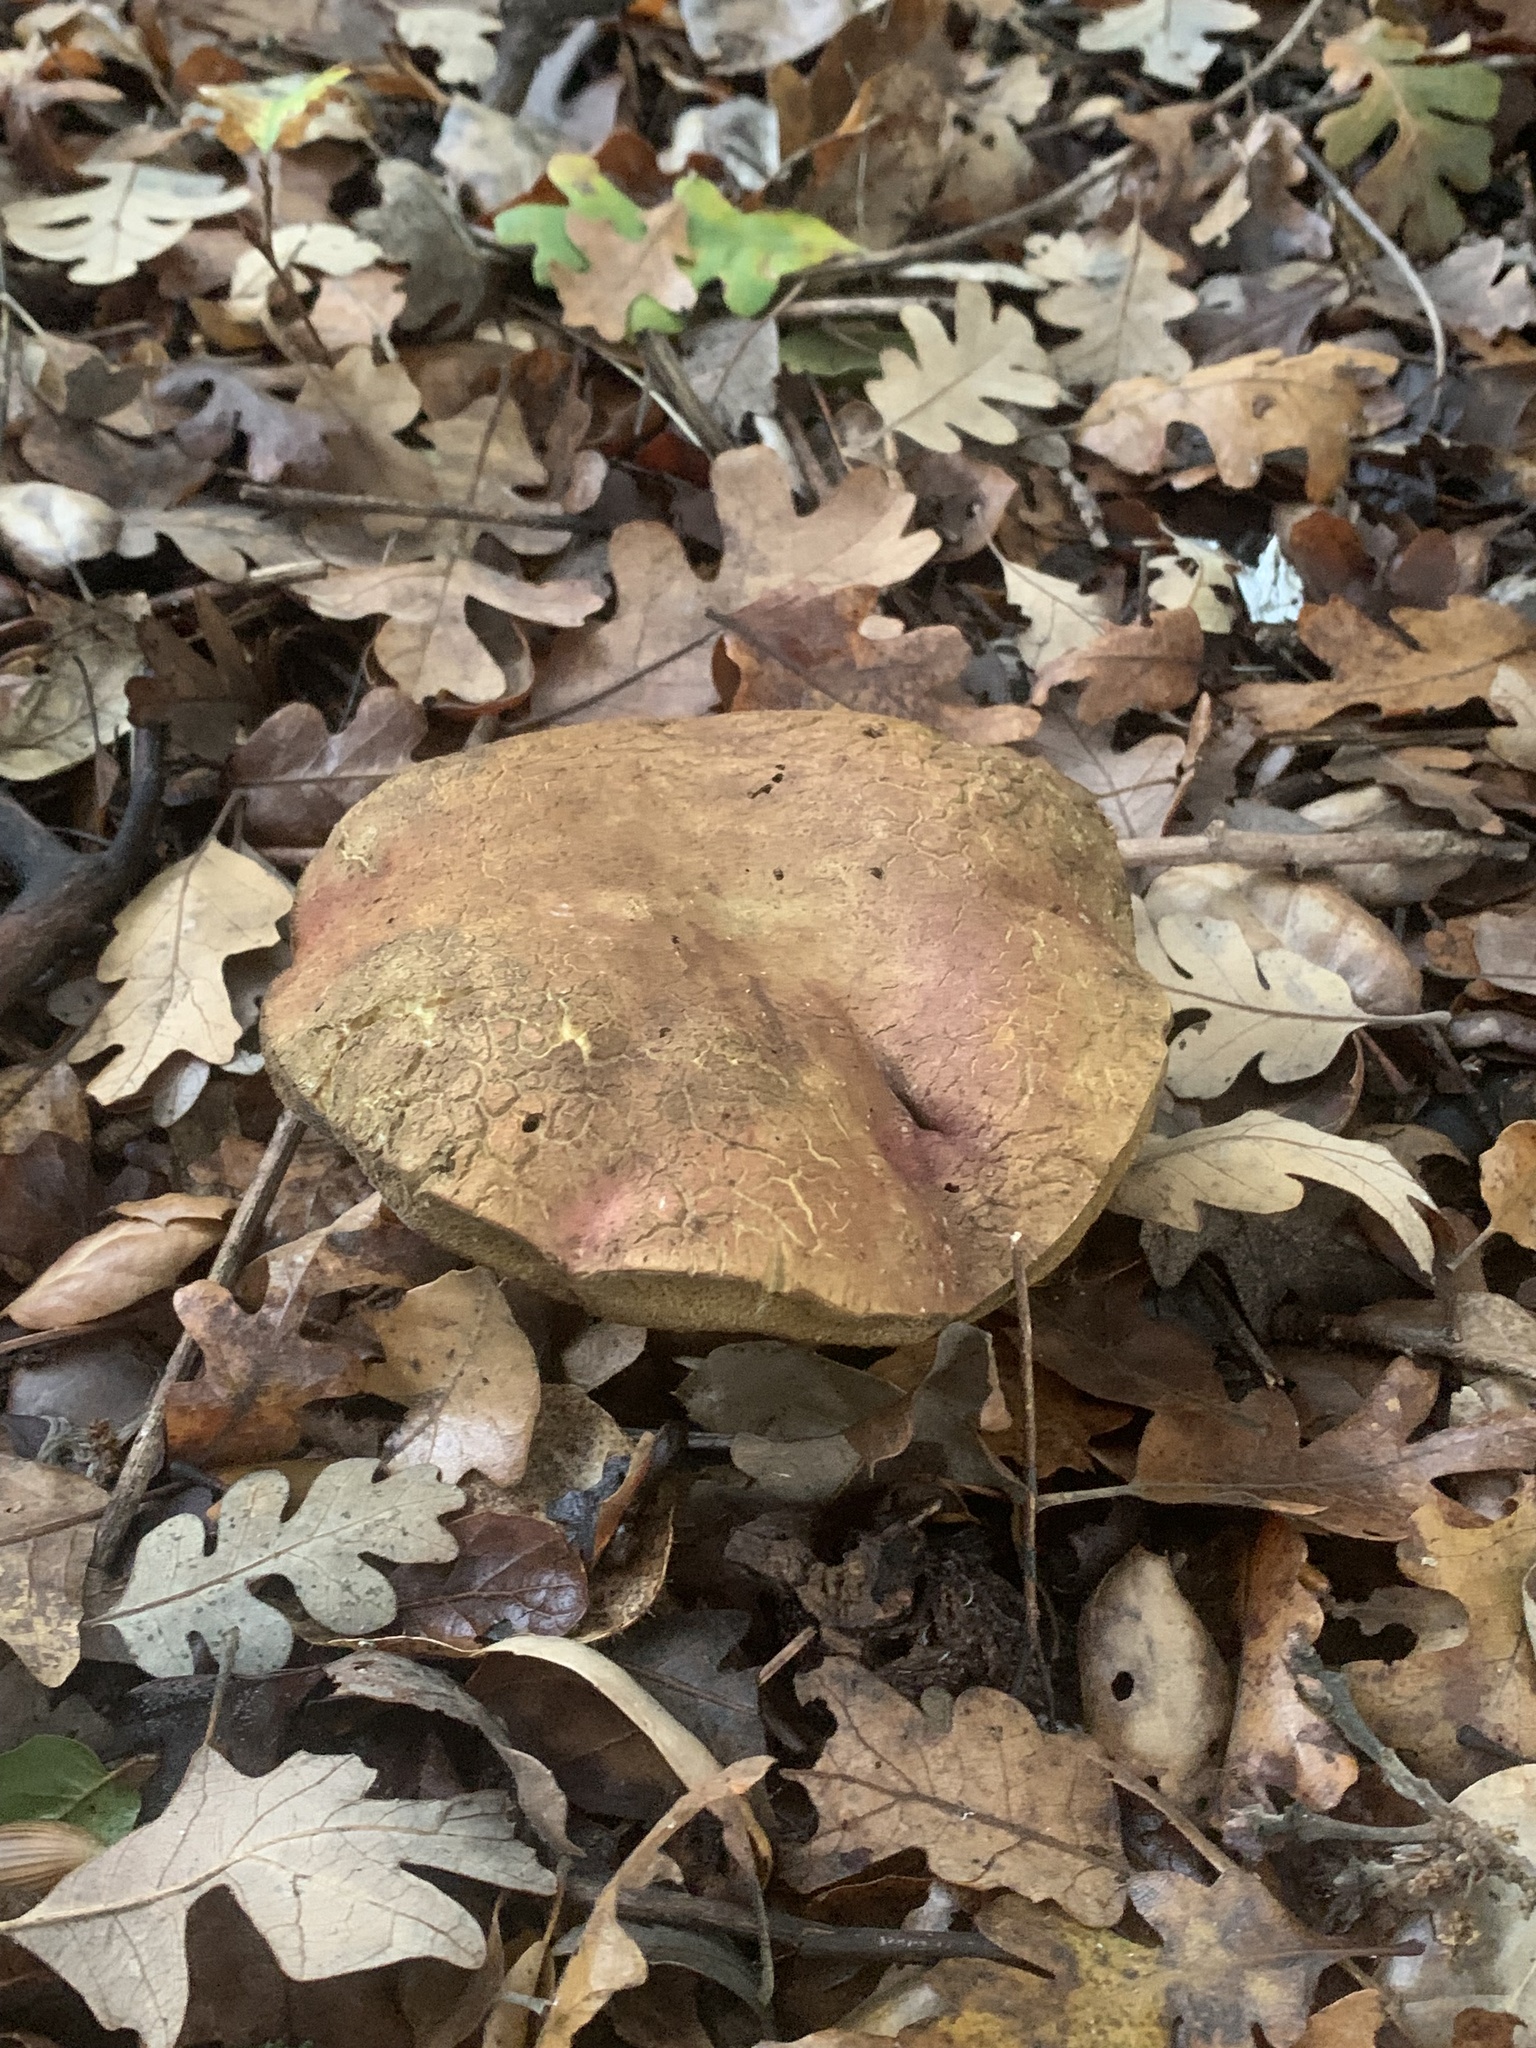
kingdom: Fungi
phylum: Basidiomycota
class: Agaricomycetes
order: Boletales
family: Boletaceae
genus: Rubroboletus
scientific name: Rubroboletus eastwoodiae
